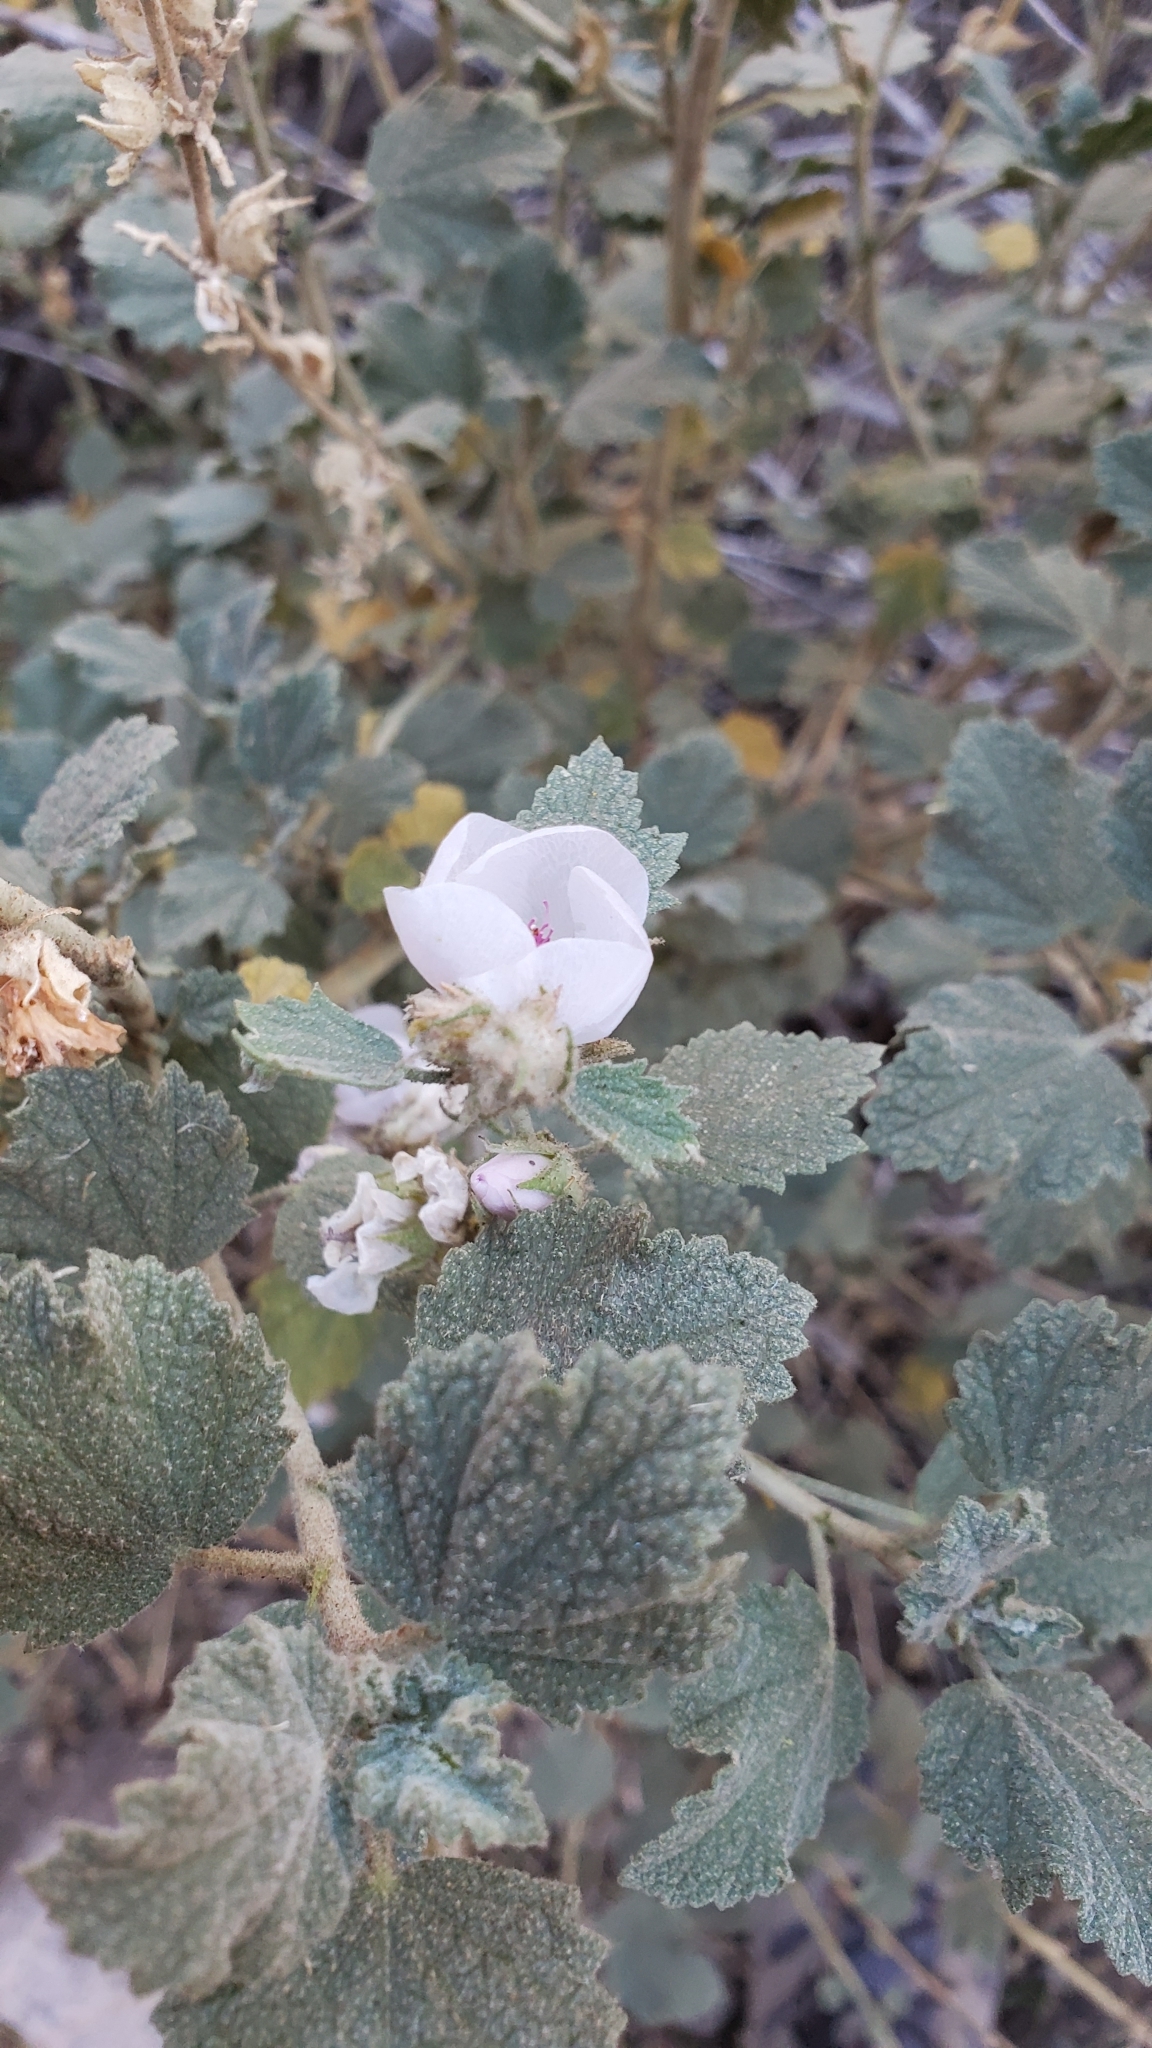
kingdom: Plantae
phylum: Tracheophyta
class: Magnoliopsida
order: Malvales
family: Malvaceae
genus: Malacothamnus
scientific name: Malacothamnus marrubioides
